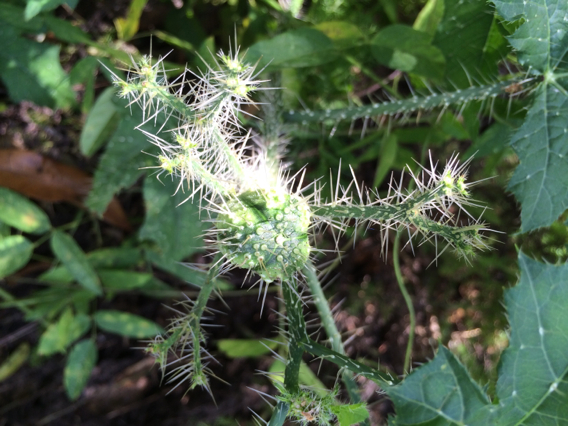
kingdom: Plantae
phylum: Tracheophyta
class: Magnoliopsida
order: Malpighiales
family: Euphorbiaceae
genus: Cnidoscolus
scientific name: Cnidoscolus texanus
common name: Texas bull-nettle
